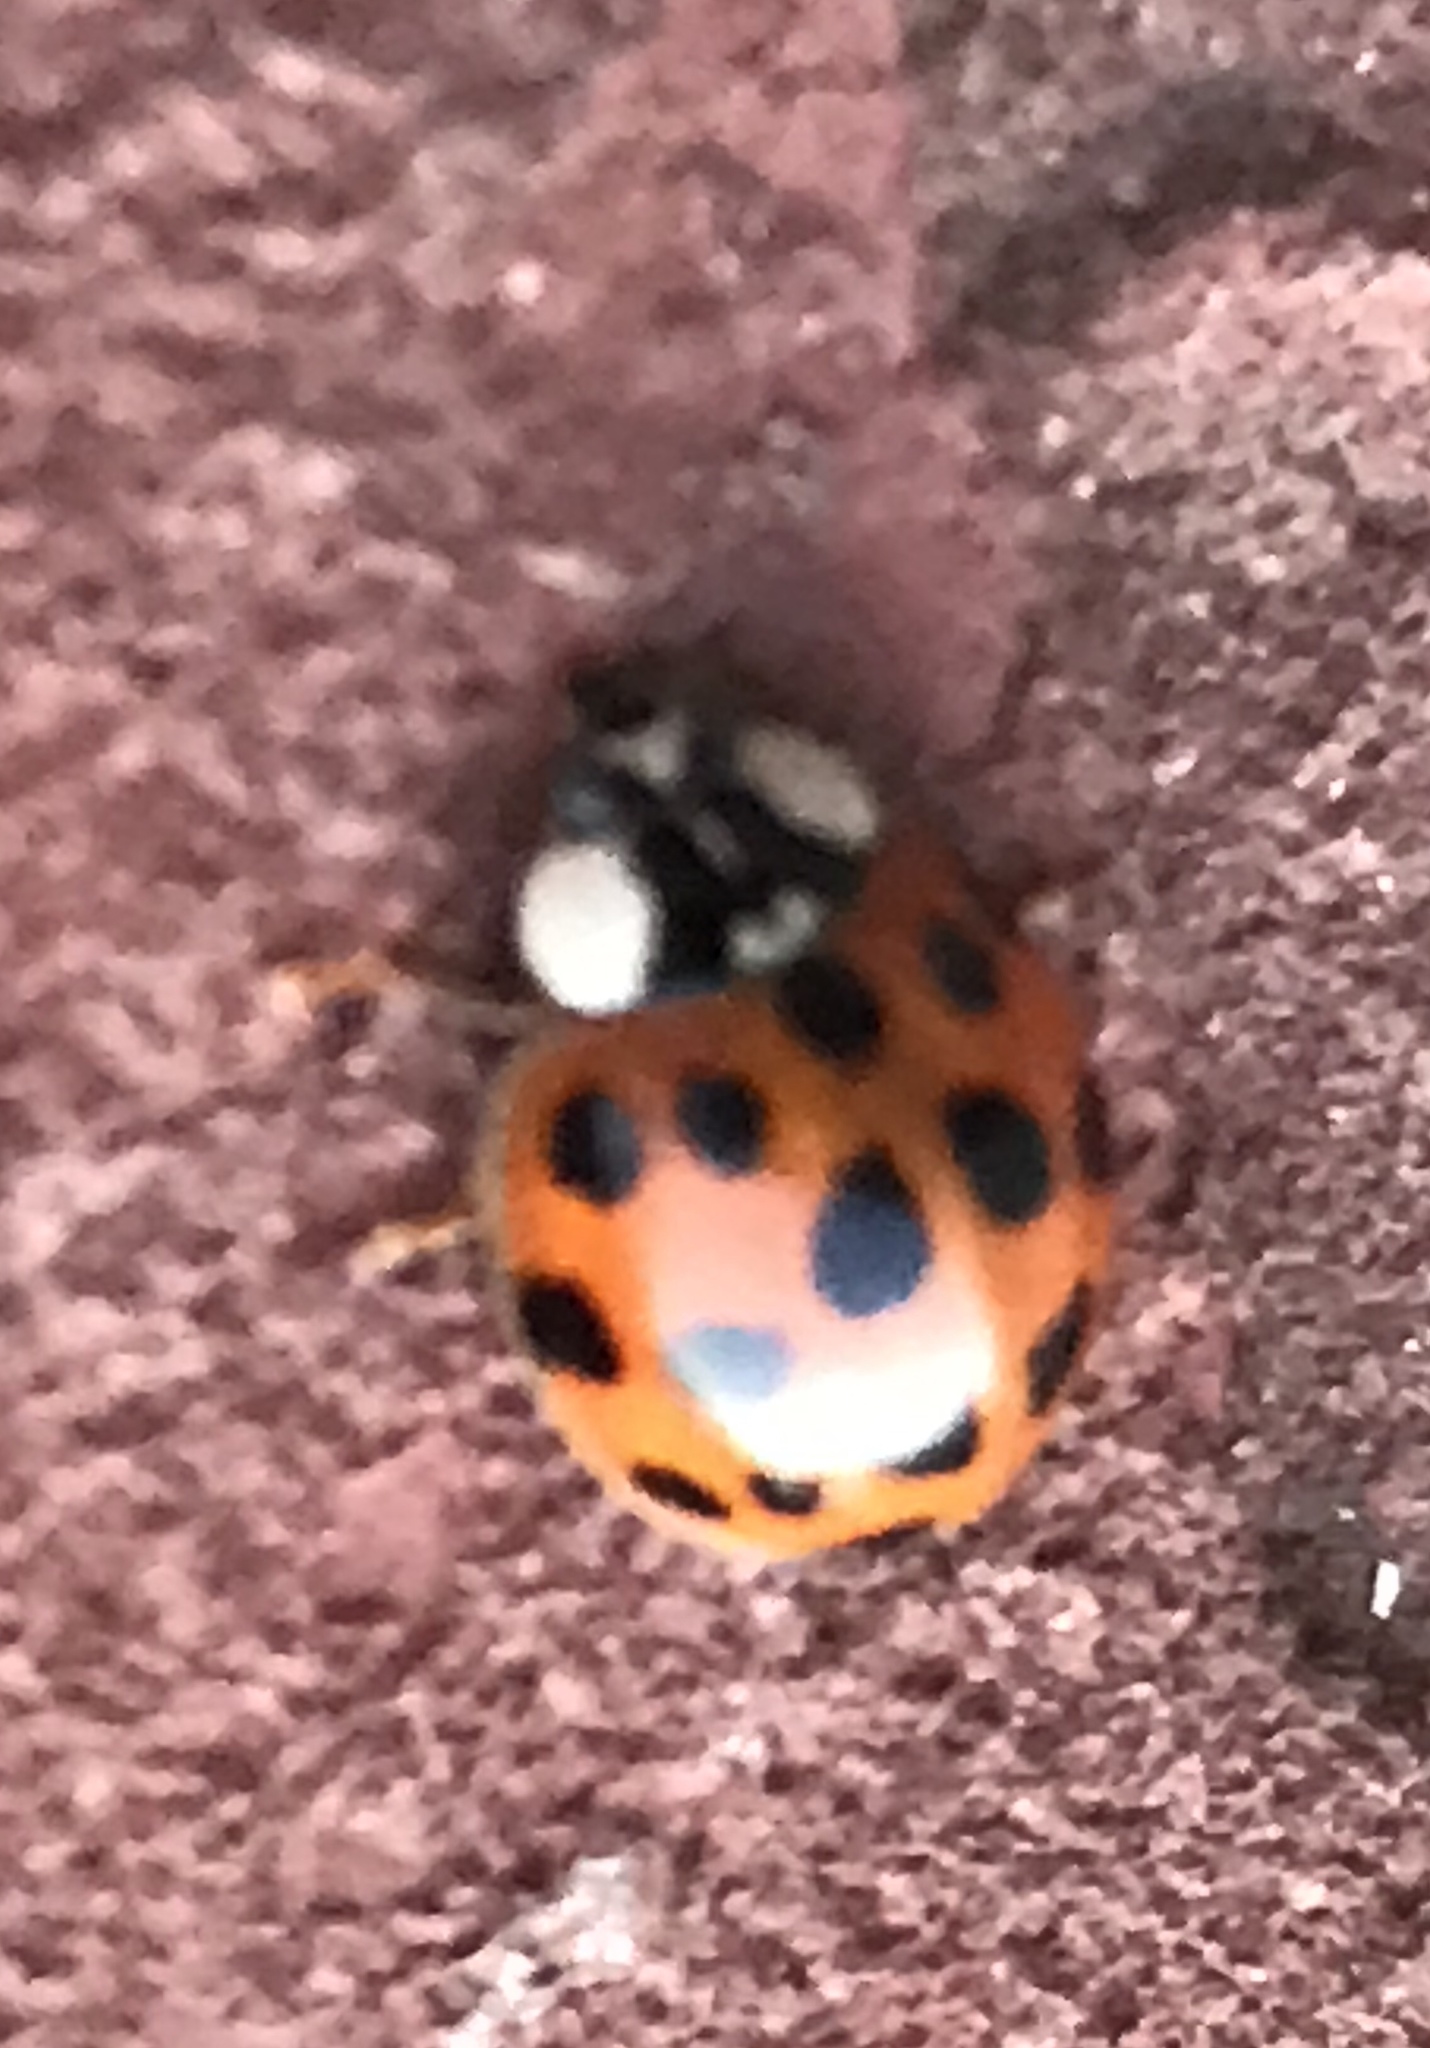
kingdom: Animalia
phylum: Arthropoda
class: Insecta
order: Coleoptera
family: Coccinellidae
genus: Harmonia
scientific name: Harmonia axyridis
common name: Harlequin ladybird
